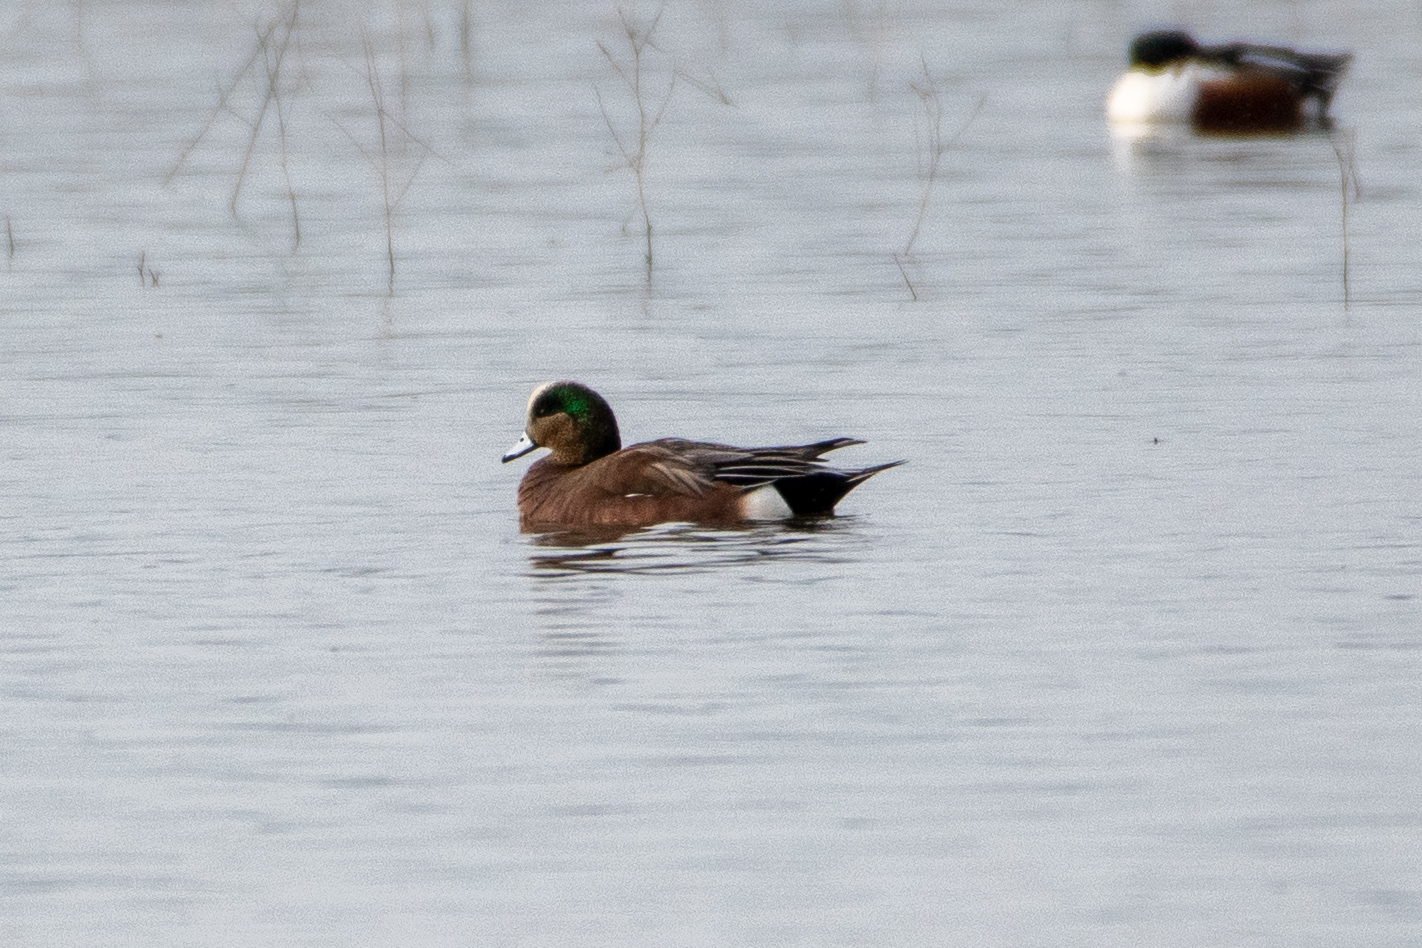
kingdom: Animalia
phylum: Chordata
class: Aves
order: Anseriformes
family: Anatidae
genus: Mareca
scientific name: Mareca americana
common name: American wigeon
